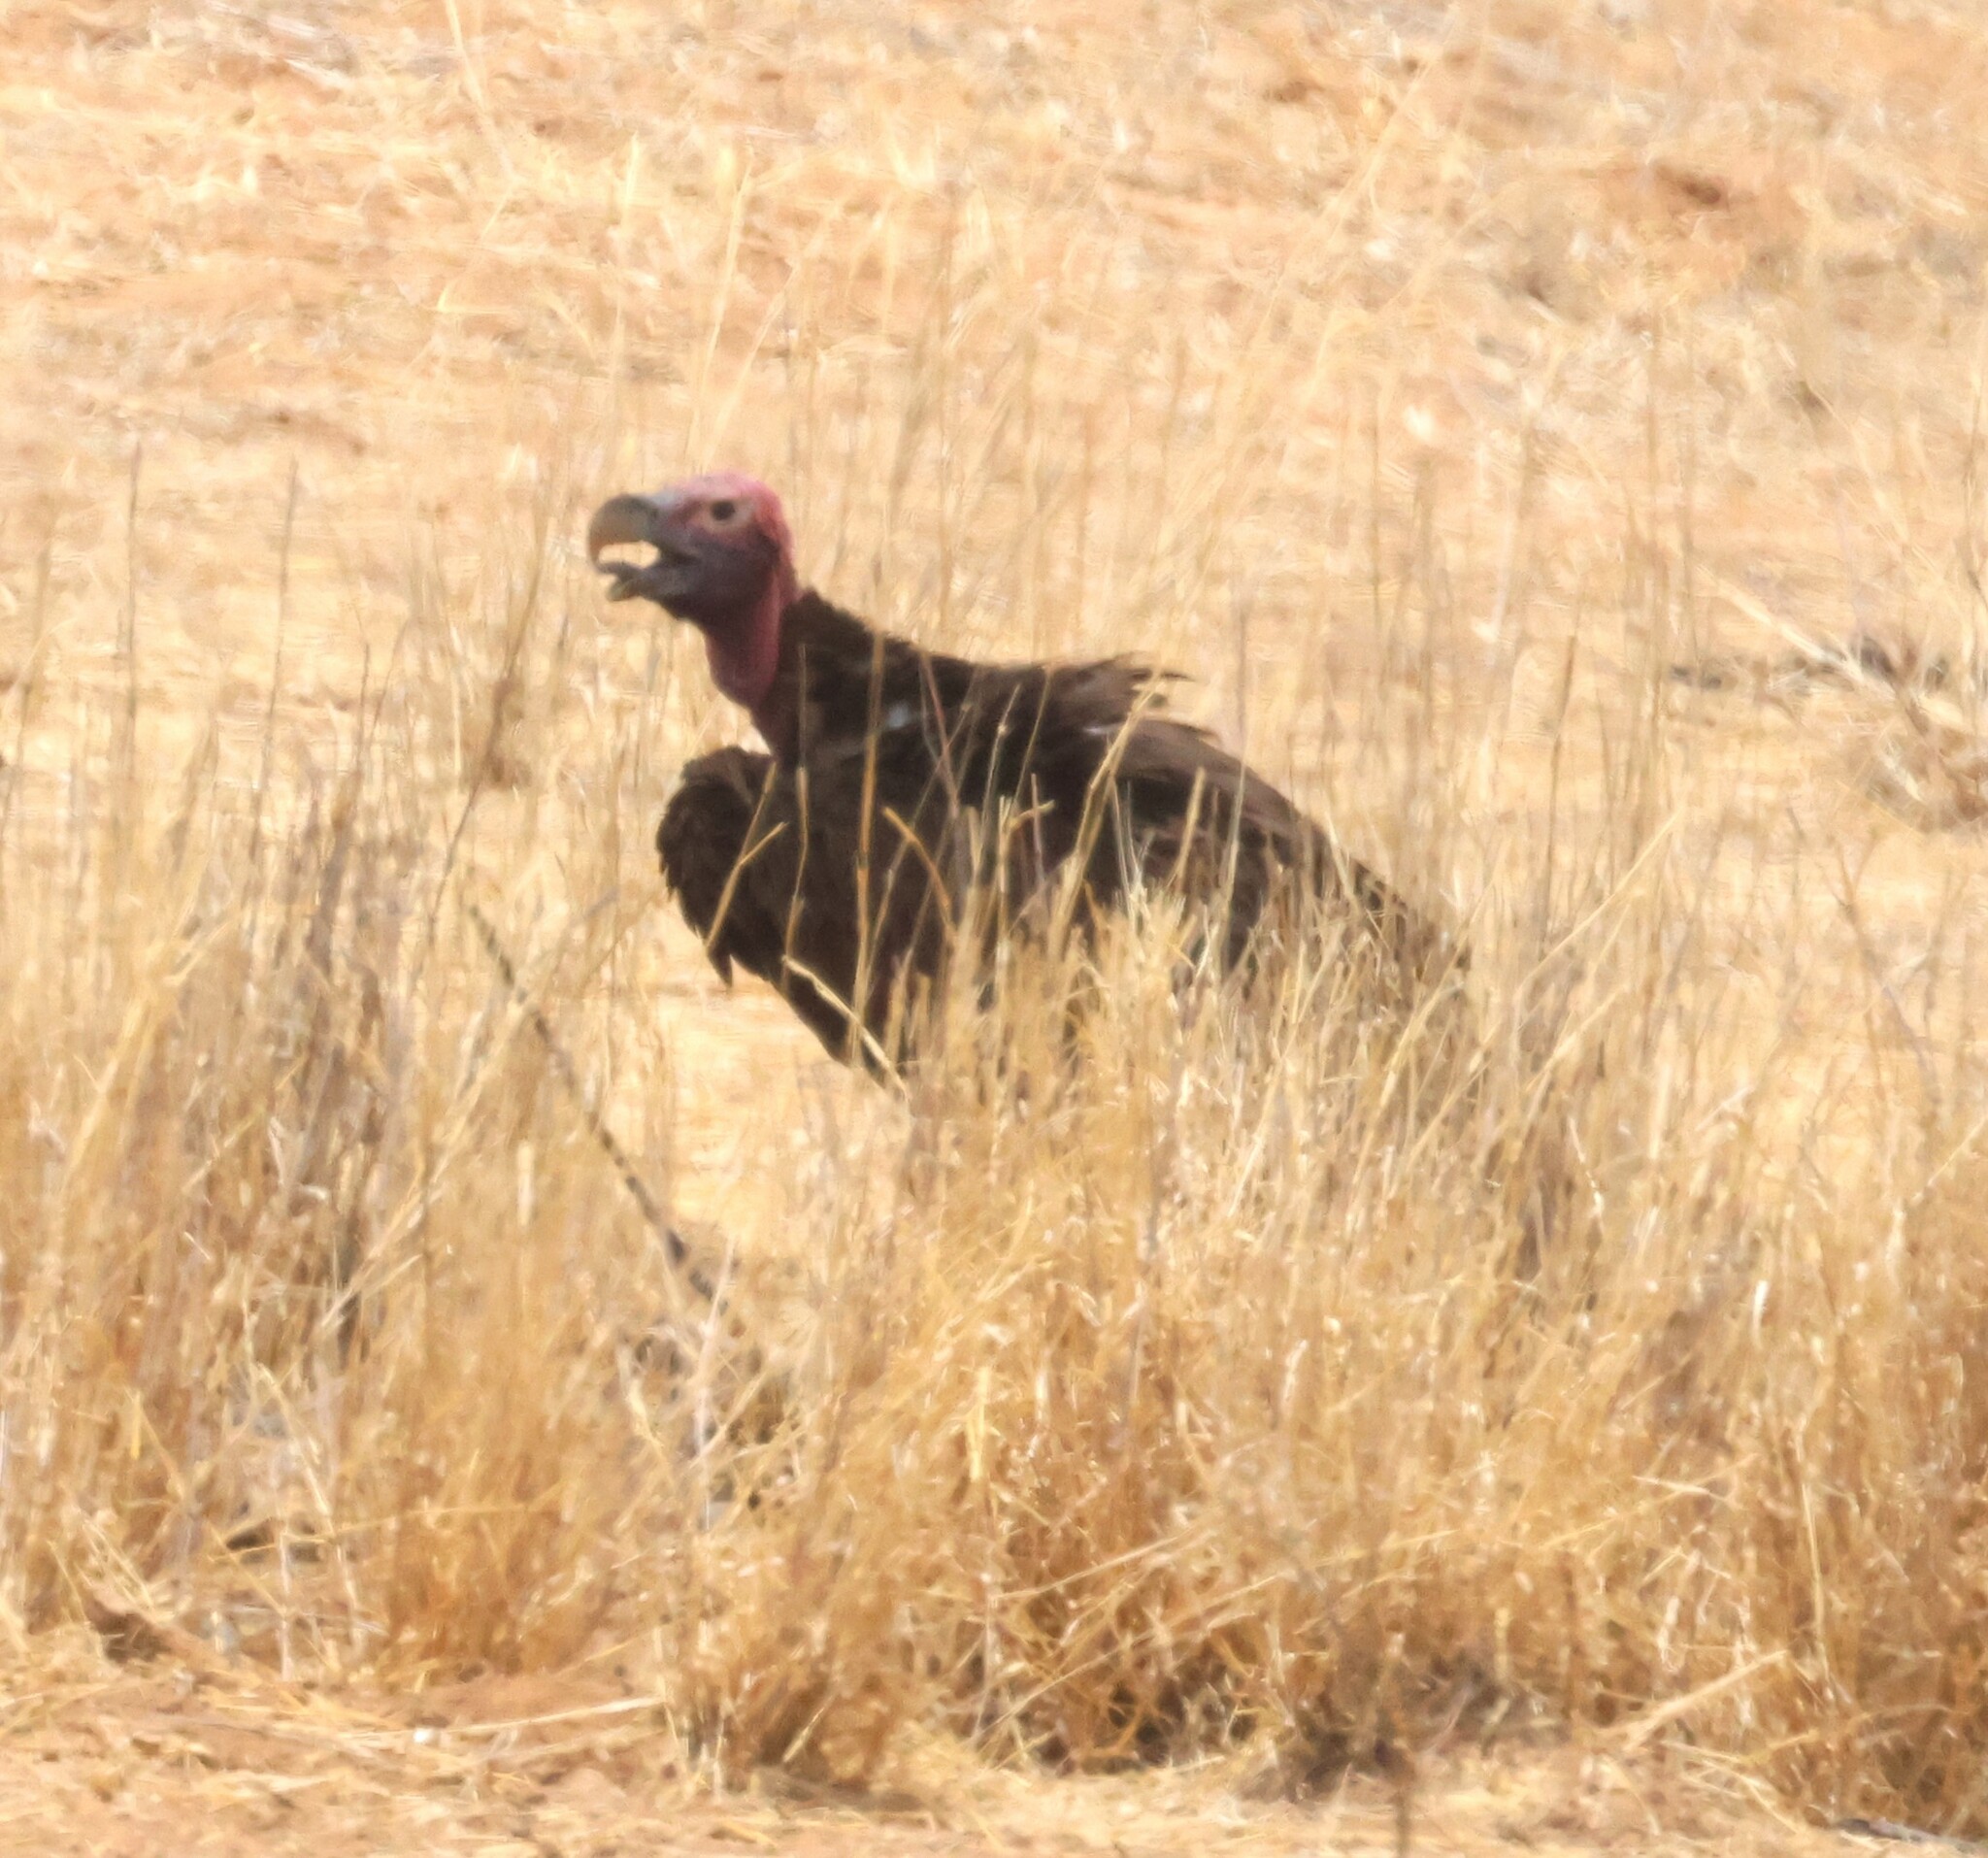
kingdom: Animalia
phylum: Chordata
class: Aves
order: Accipitriformes
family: Accipitridae
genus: Torgos
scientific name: Torgos tracheliotos
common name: Lappet-faced vulture
